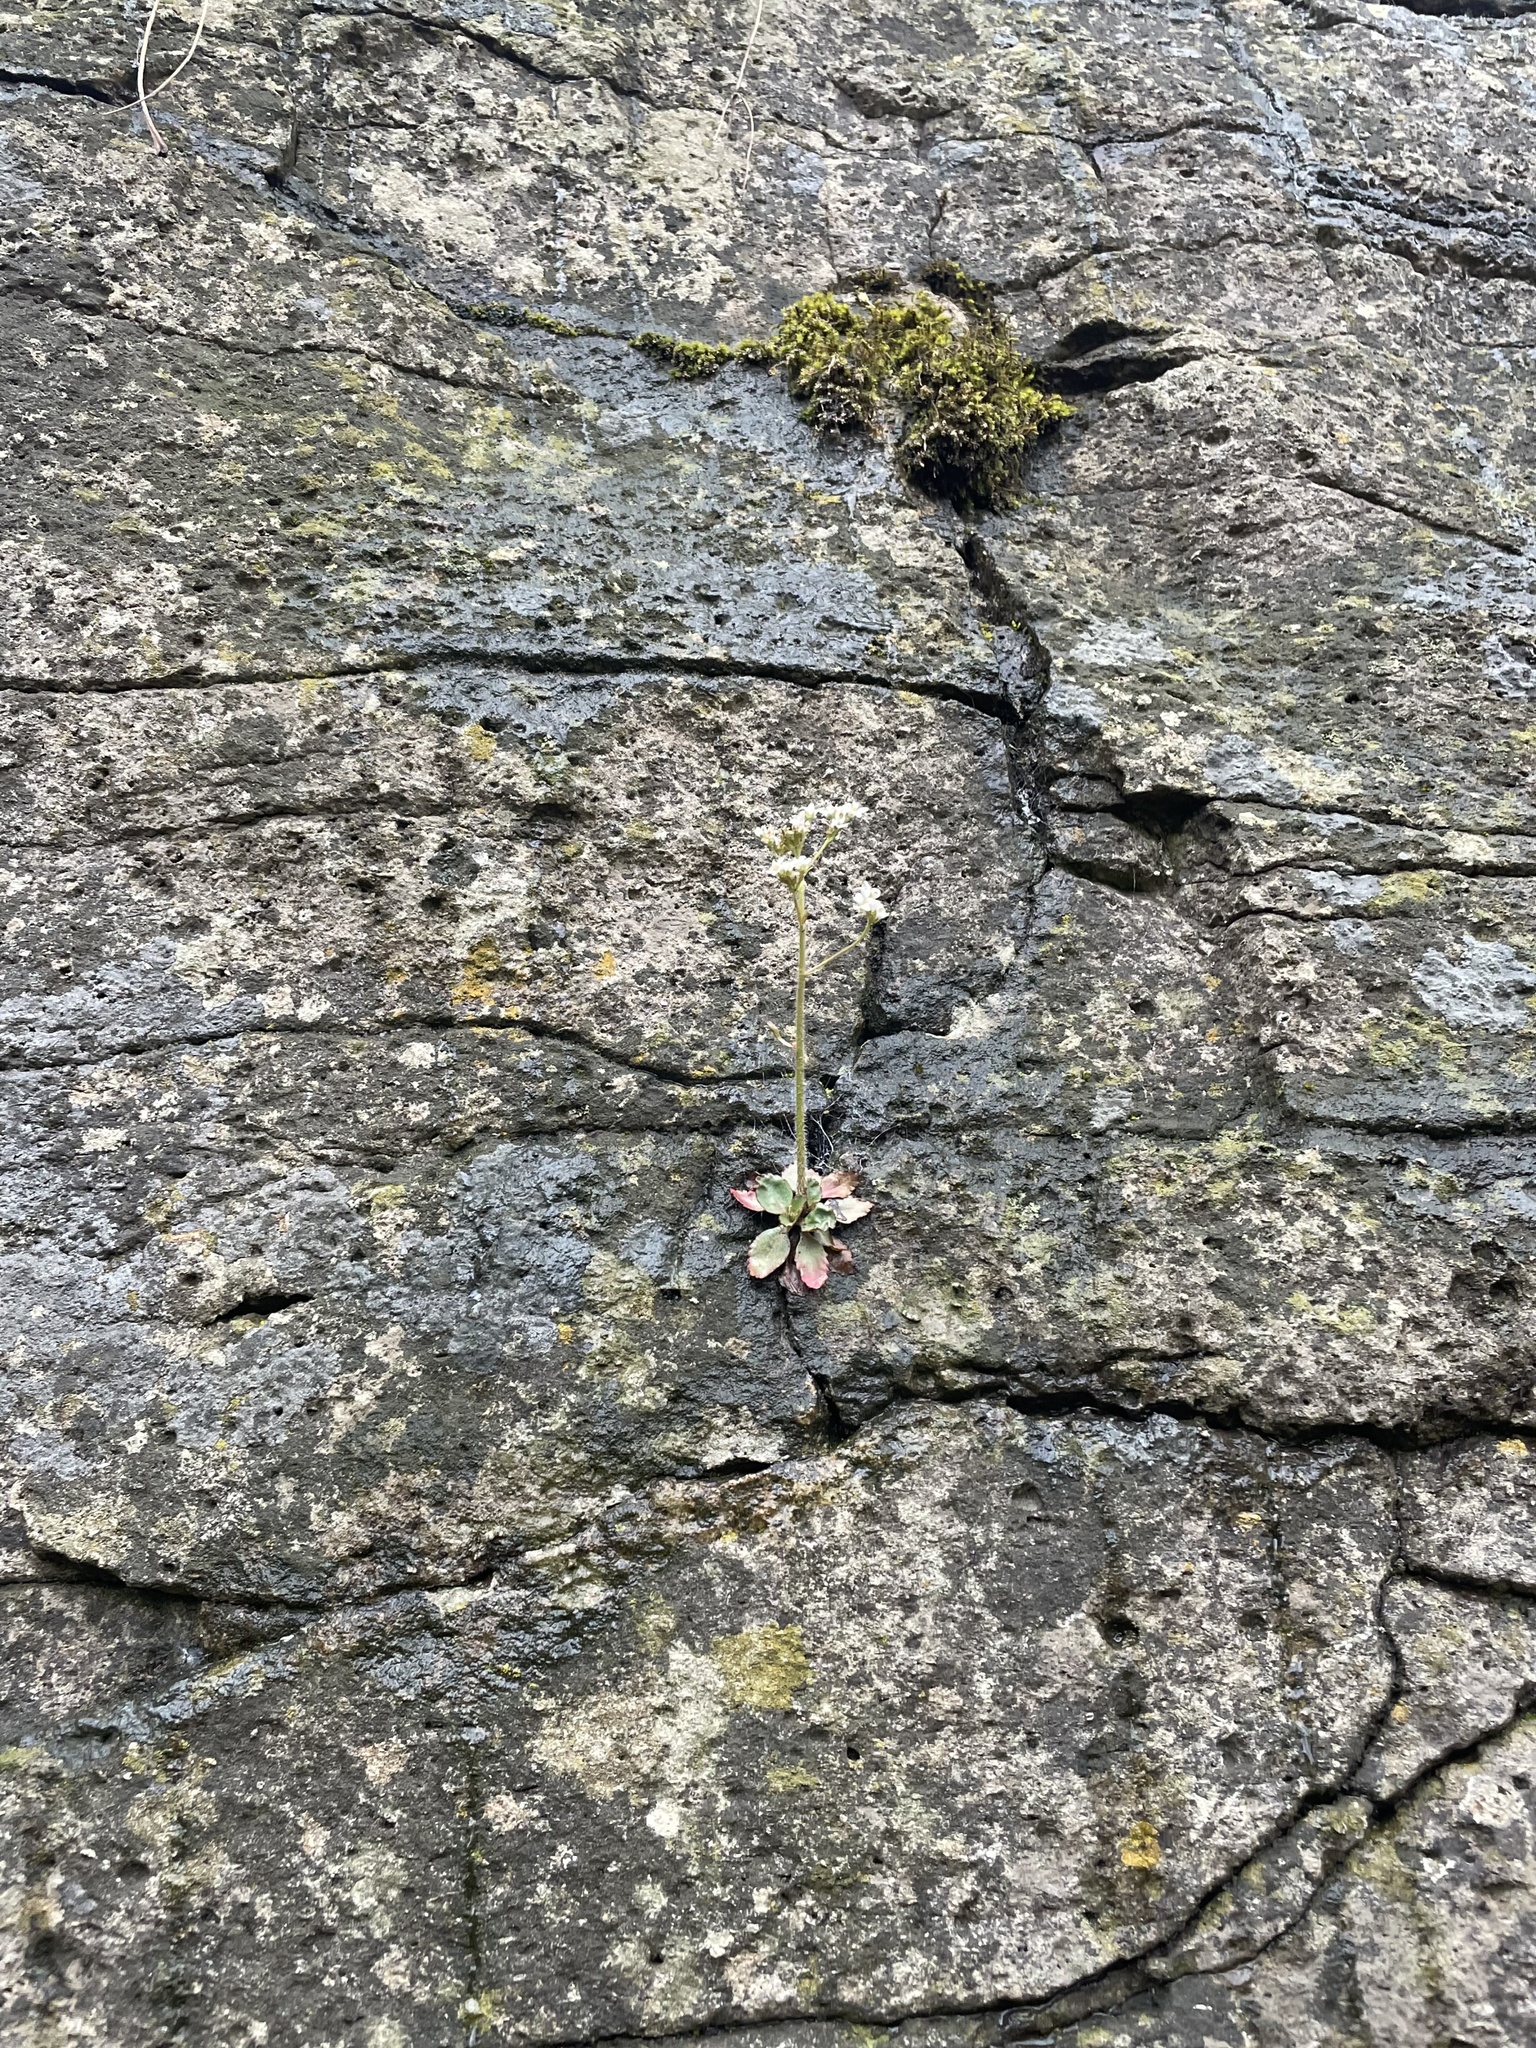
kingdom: Plantae
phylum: Tracheophyta
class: Magnoliopsida
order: Saxifragales
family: Saxifragaceae
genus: Micranthes
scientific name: Micranthes virginiensis
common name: Early saxifrage
